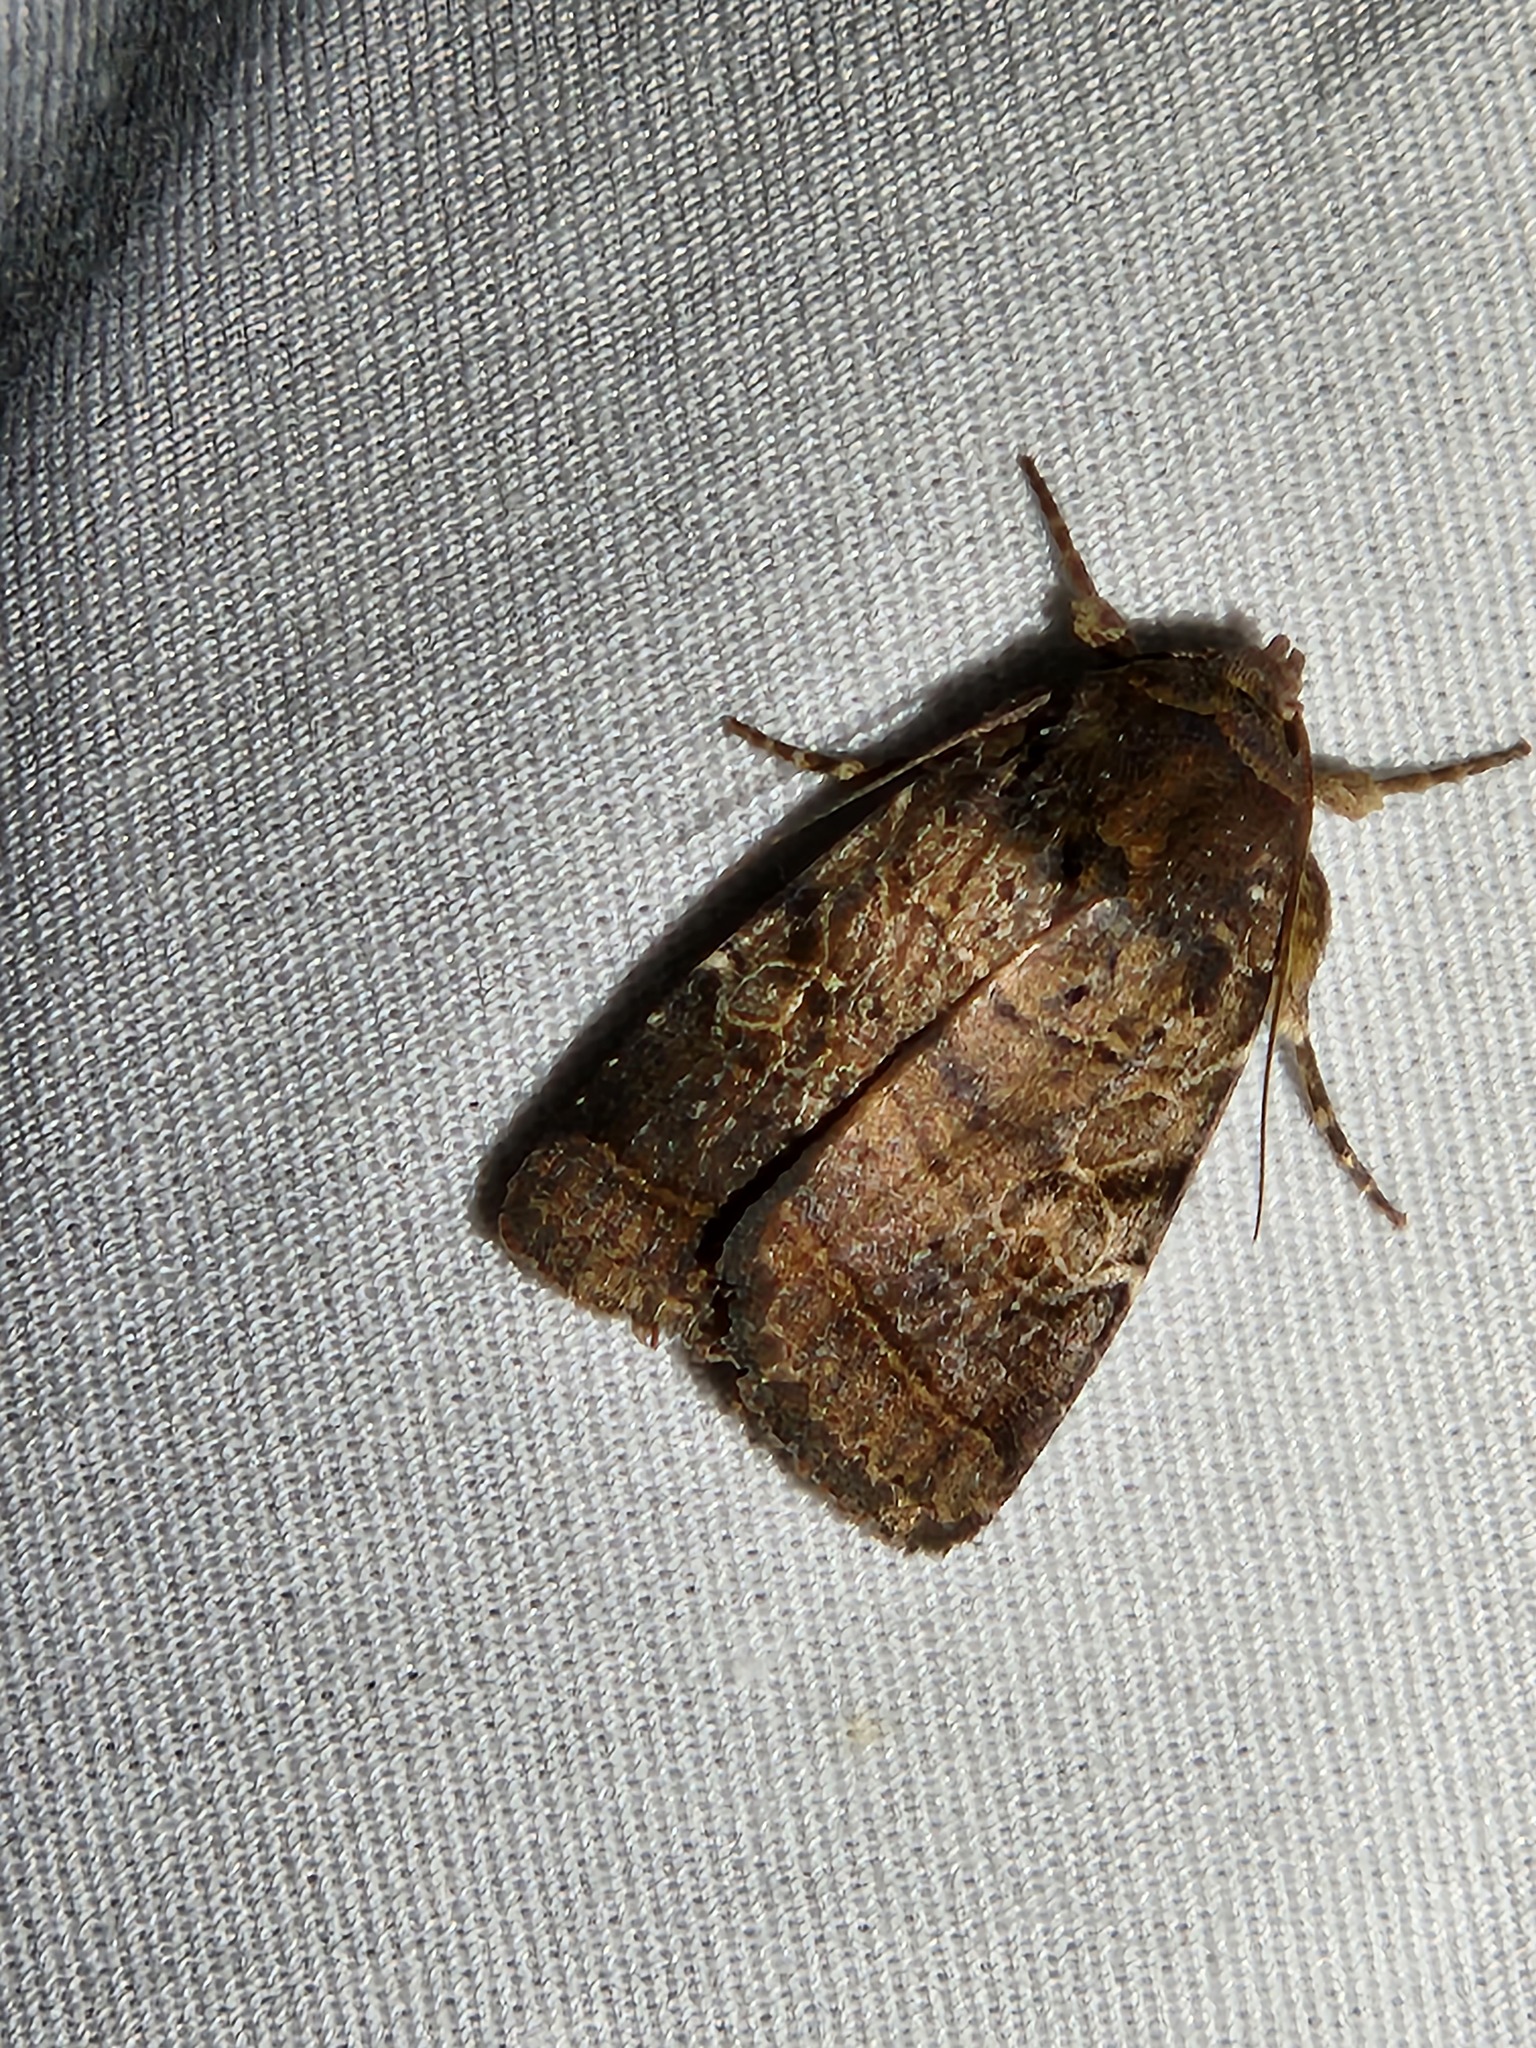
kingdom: Animalia
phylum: Arthropoda
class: Insecta
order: Lepidoptera
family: Noctuidae
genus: Orthodes
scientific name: Orthodes furtiva
